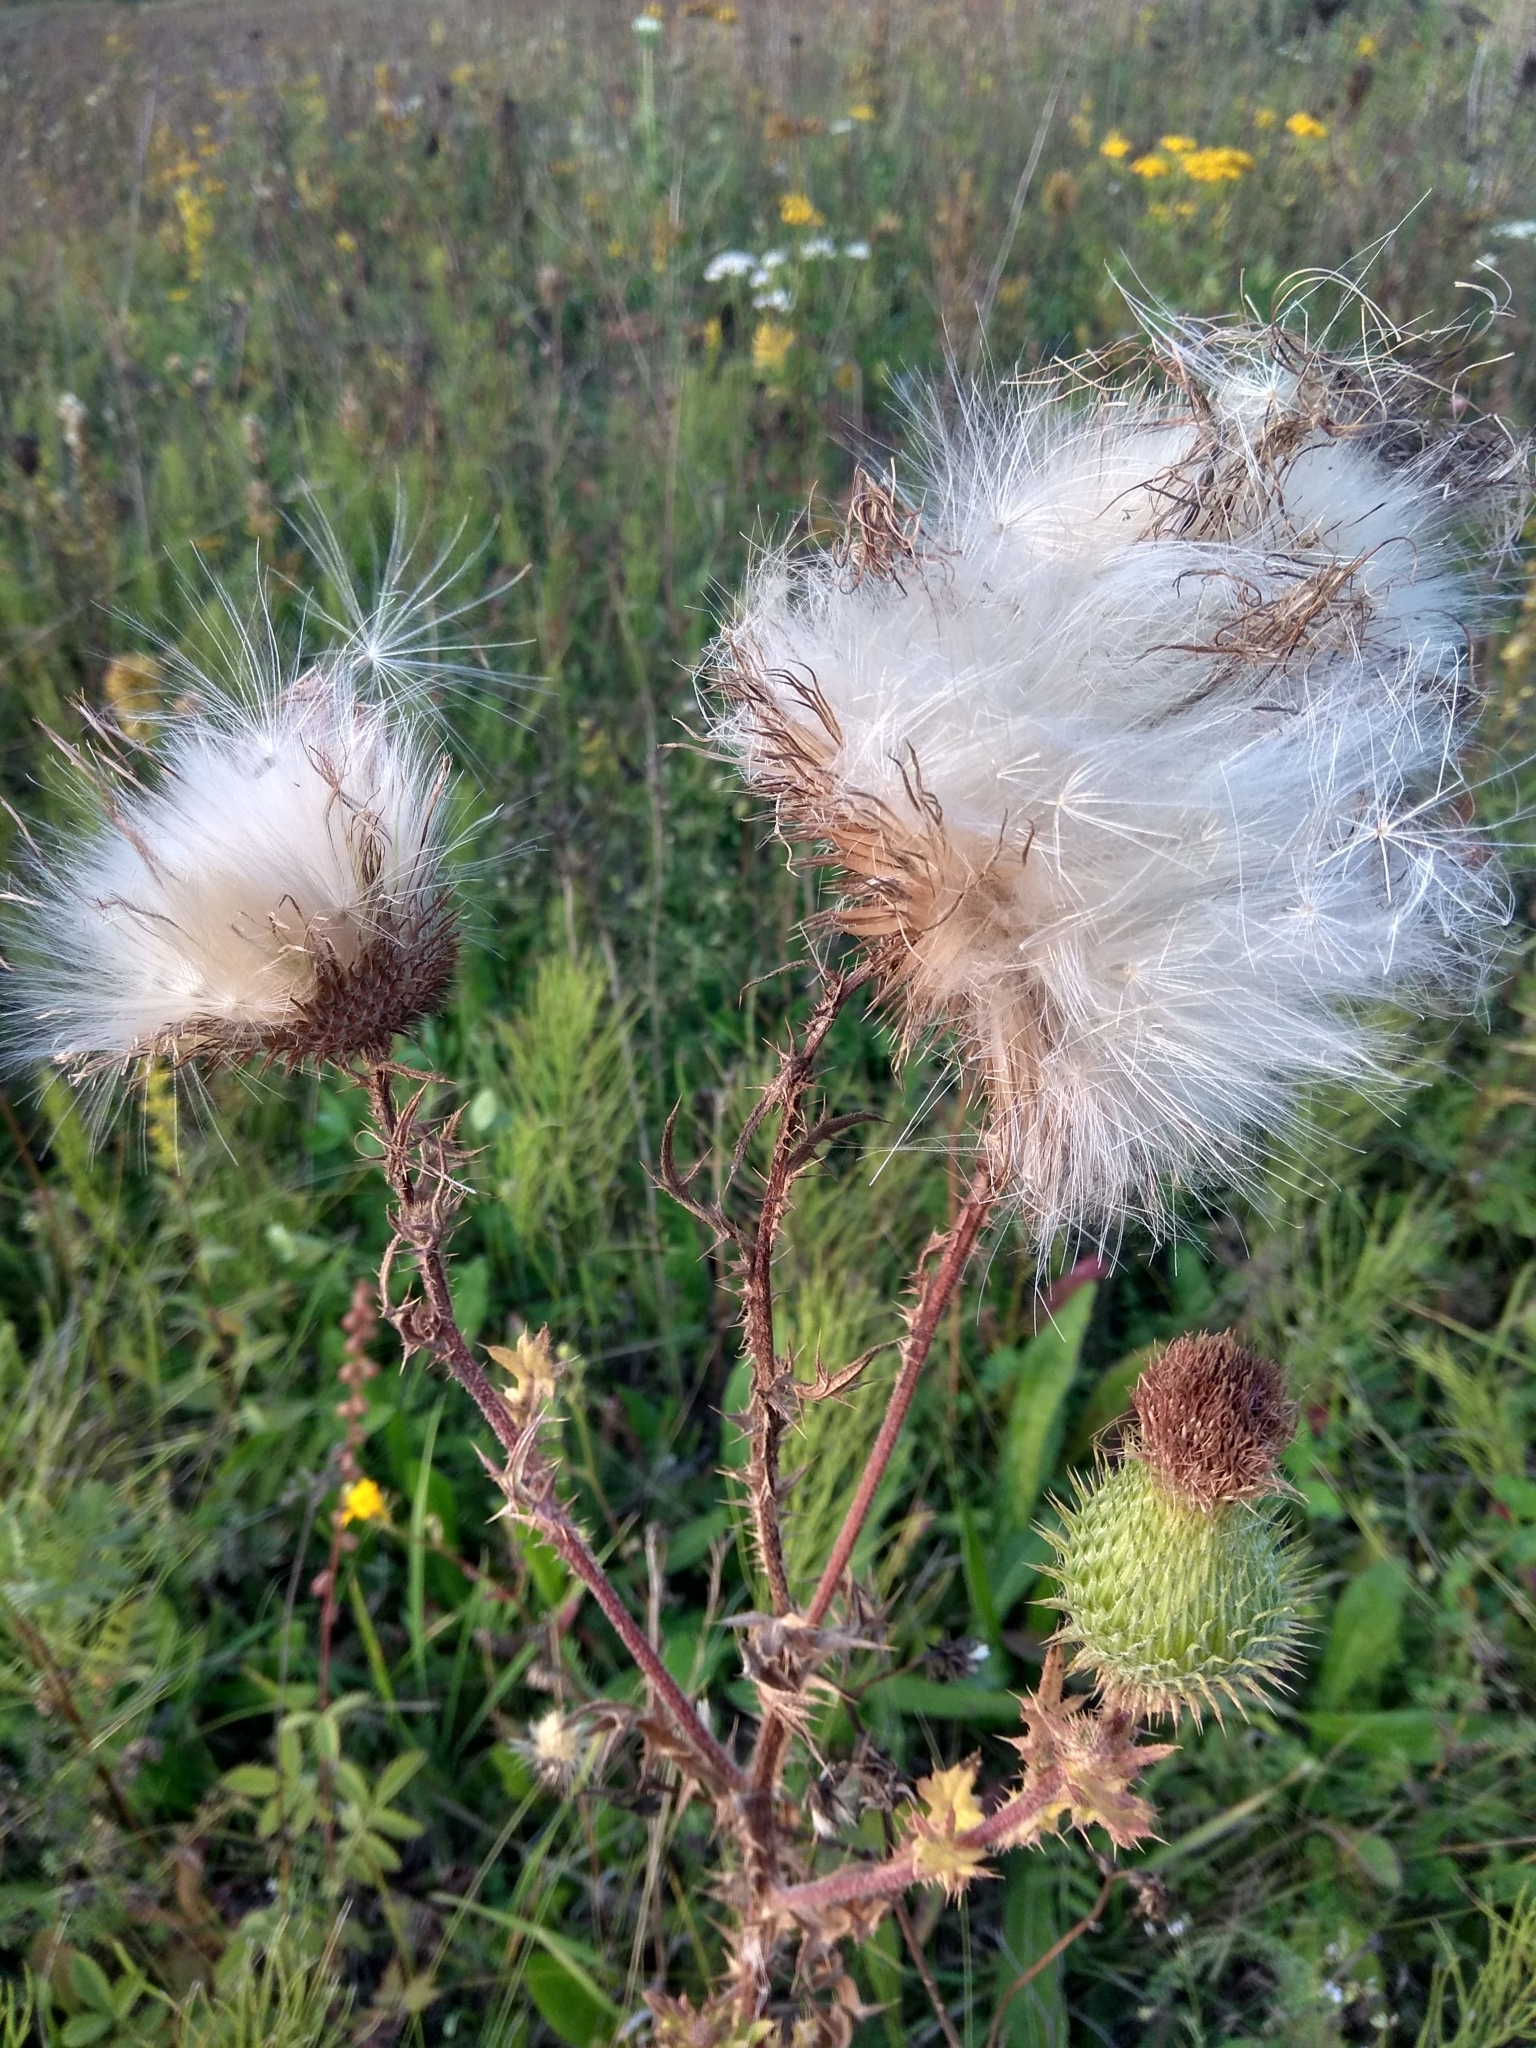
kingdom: Plantae
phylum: Tracheophyta
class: Magnoliopsida
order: Asterales
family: Asteraceae
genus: Cirsium
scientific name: Cirsium vulgare
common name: Bull thistle
